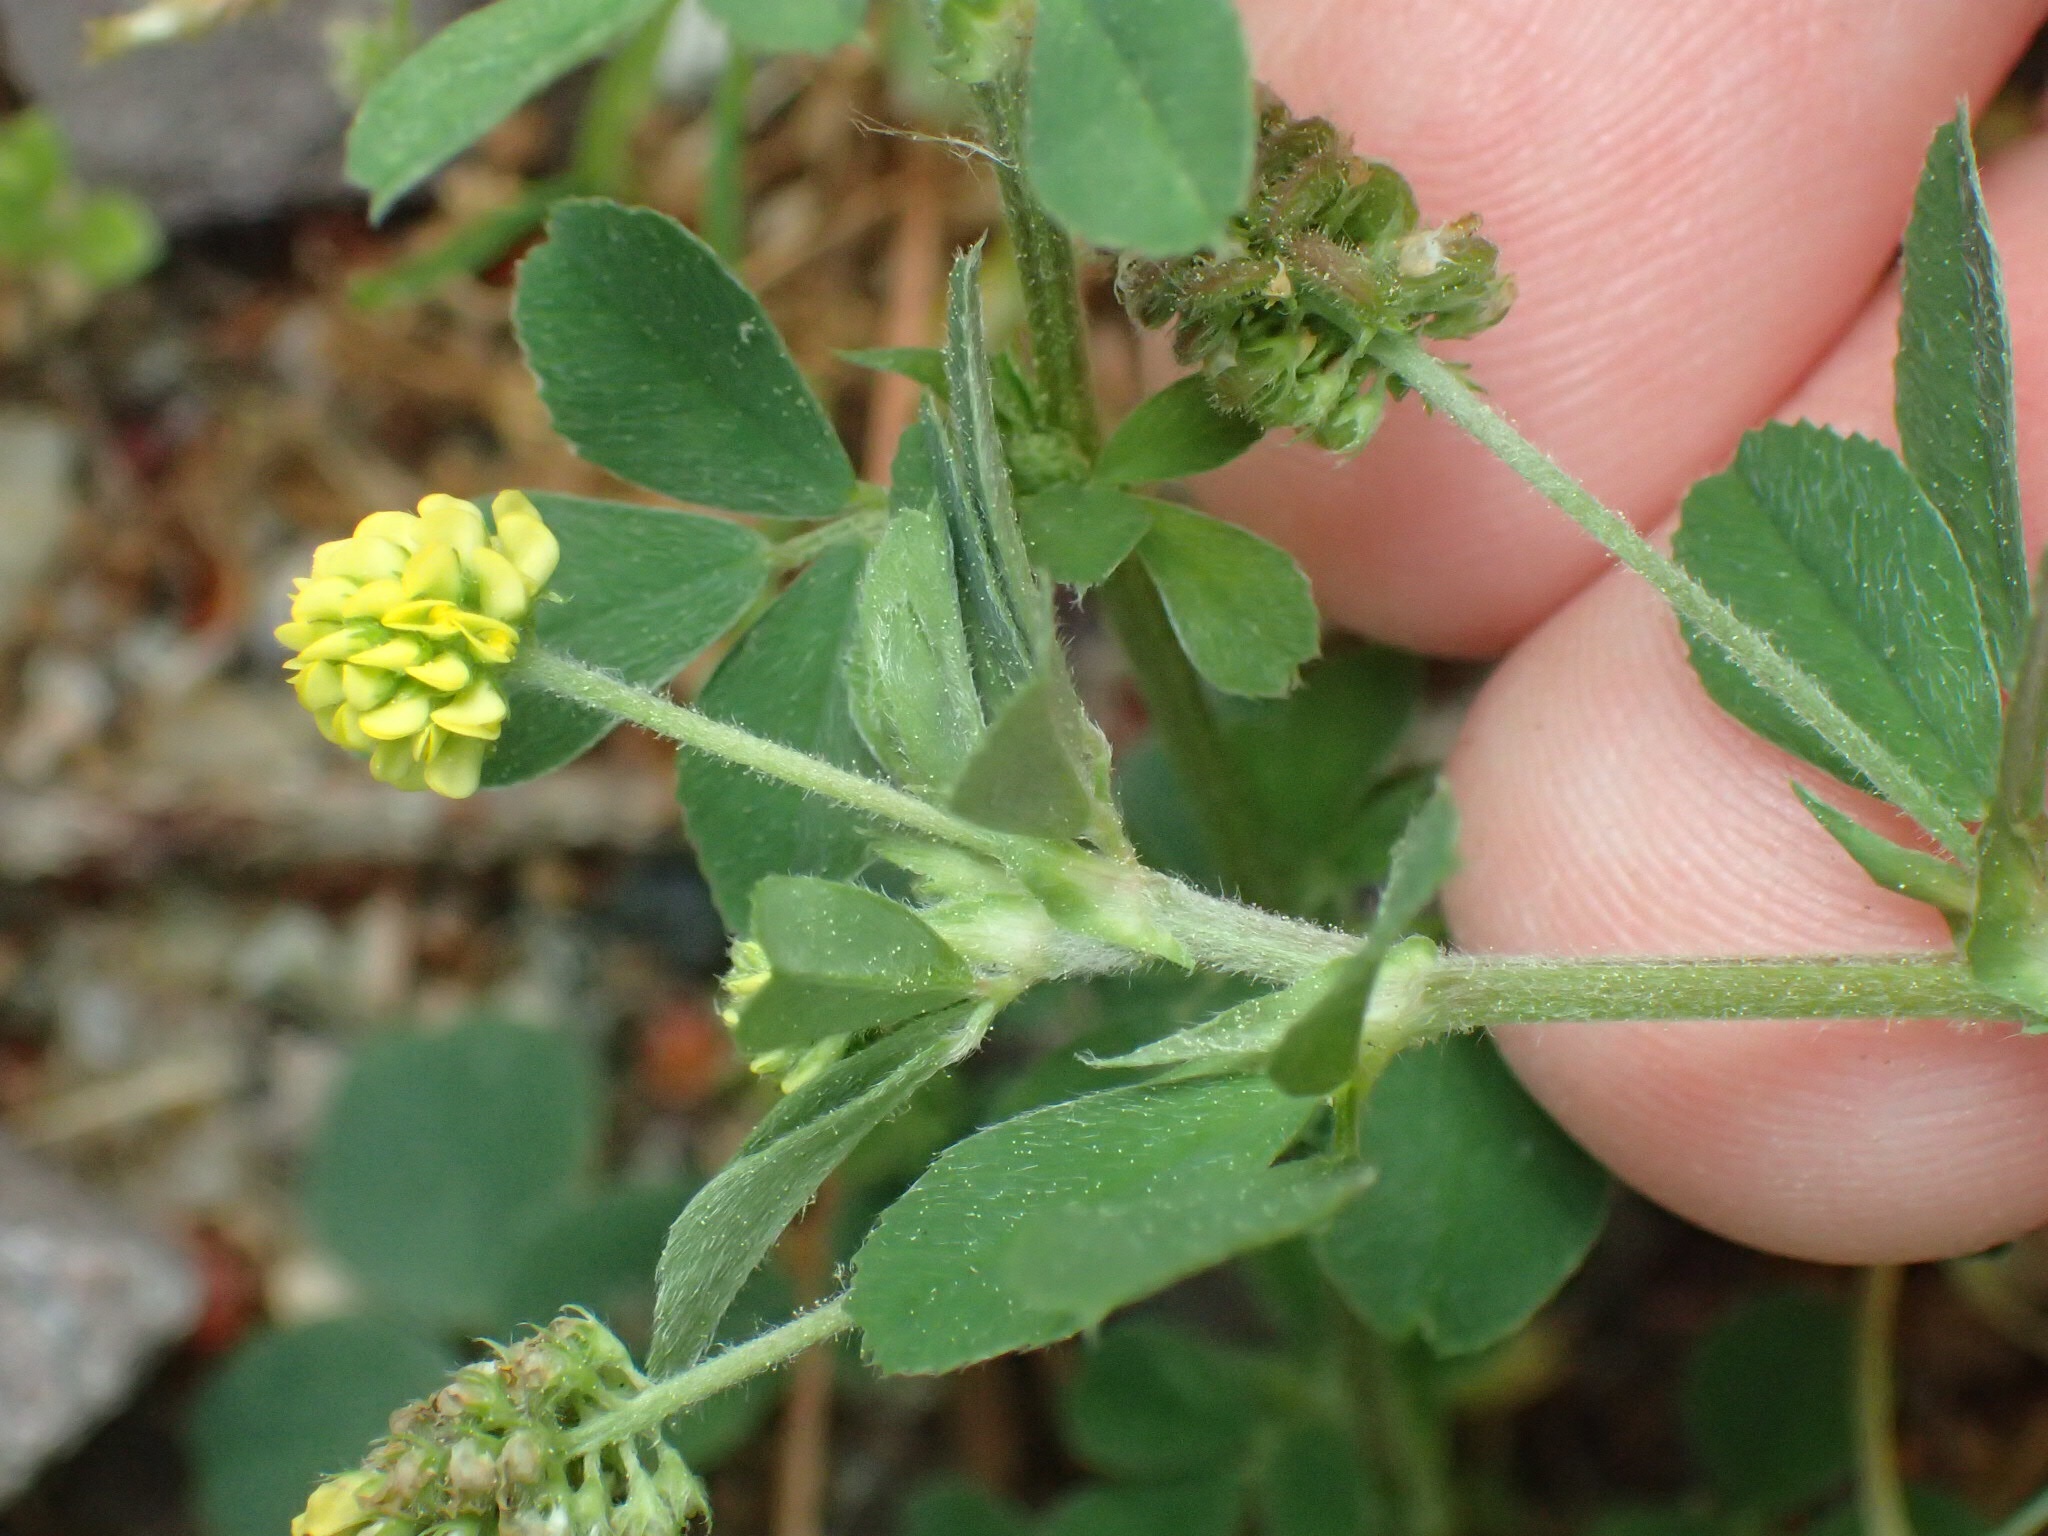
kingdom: Plantae
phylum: Tracheophyta
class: Magnoliopsida
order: Fabales
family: Fabaceae
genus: Medicago
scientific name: Medicago lupulina
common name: Black medick
